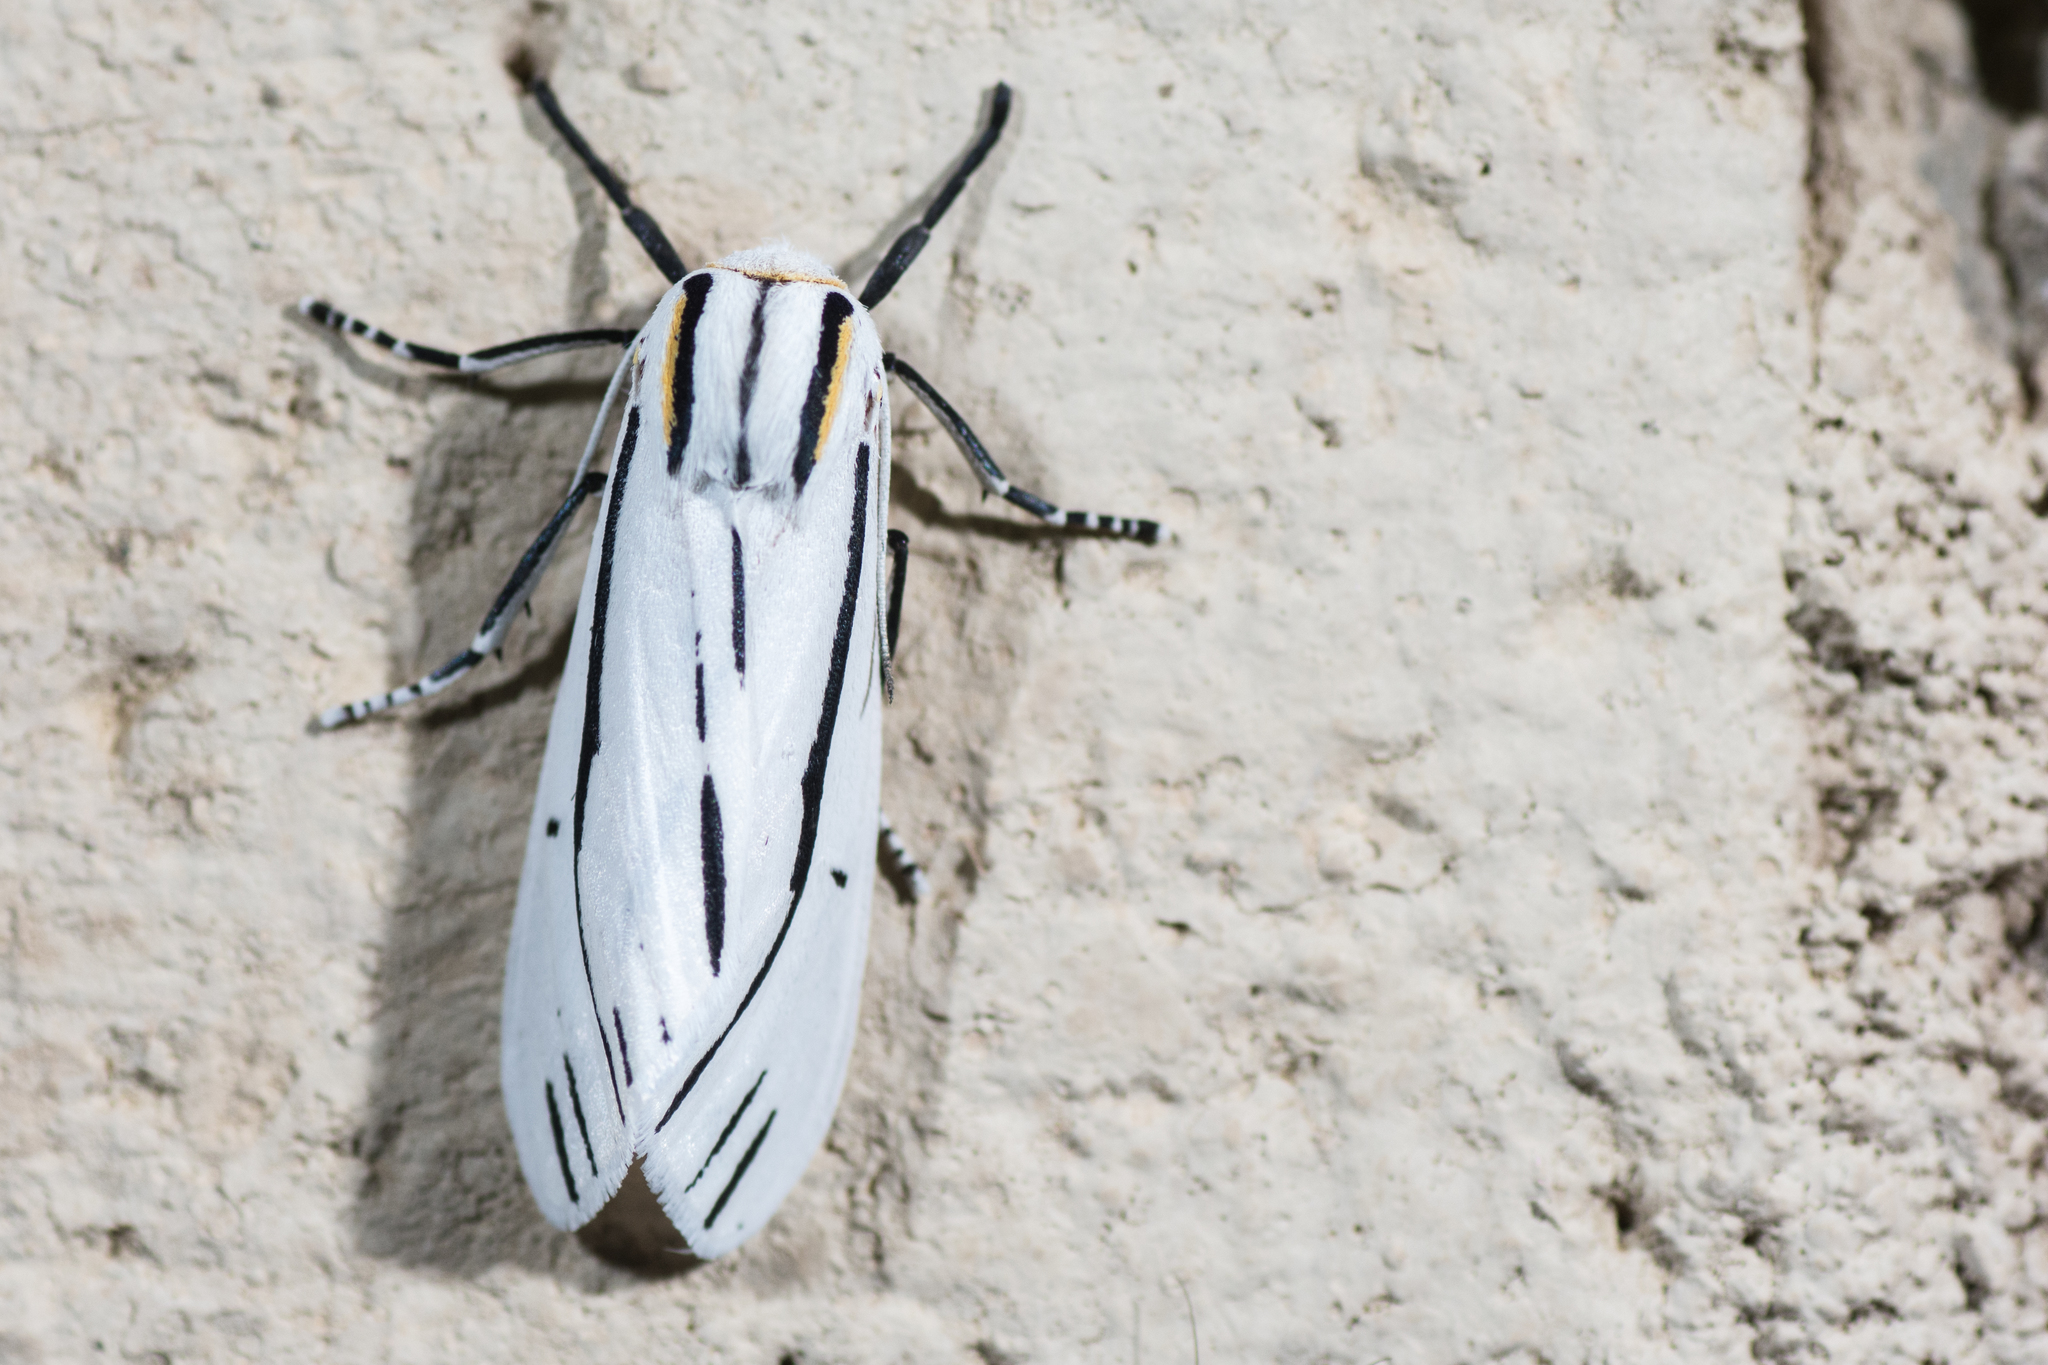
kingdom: Animalia
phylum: Arthropoda
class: Insecta
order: Lepidoptera
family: Erebidae
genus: Ectypia
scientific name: Ectypia clio
